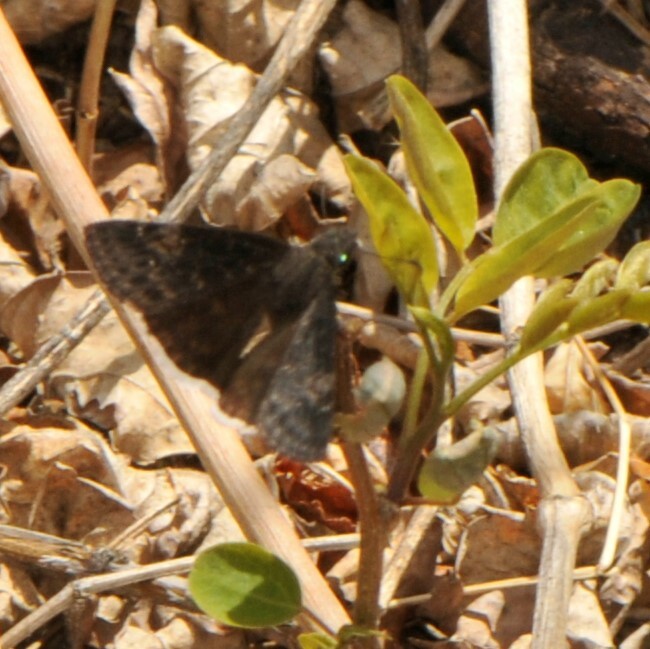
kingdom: Animalia
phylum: Arthropoda
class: Insecta
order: Lepidoptera
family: Hesperiidae
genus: Erynnis
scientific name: Erynnis funeralis
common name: Funereal duskywing
